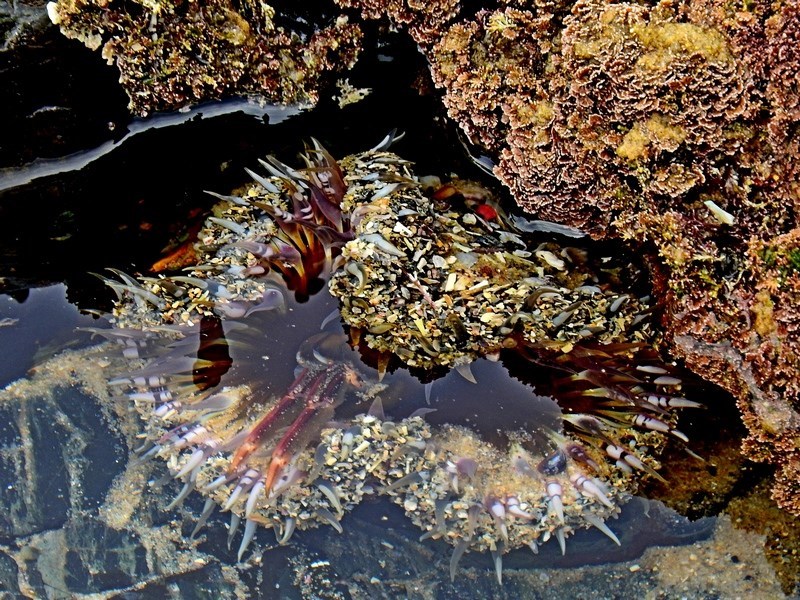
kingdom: Animalia
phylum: Cnidaria
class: Anthozoa
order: Actiniaria
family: Actiniidae
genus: Oulactis
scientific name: Oulactis muscosa
